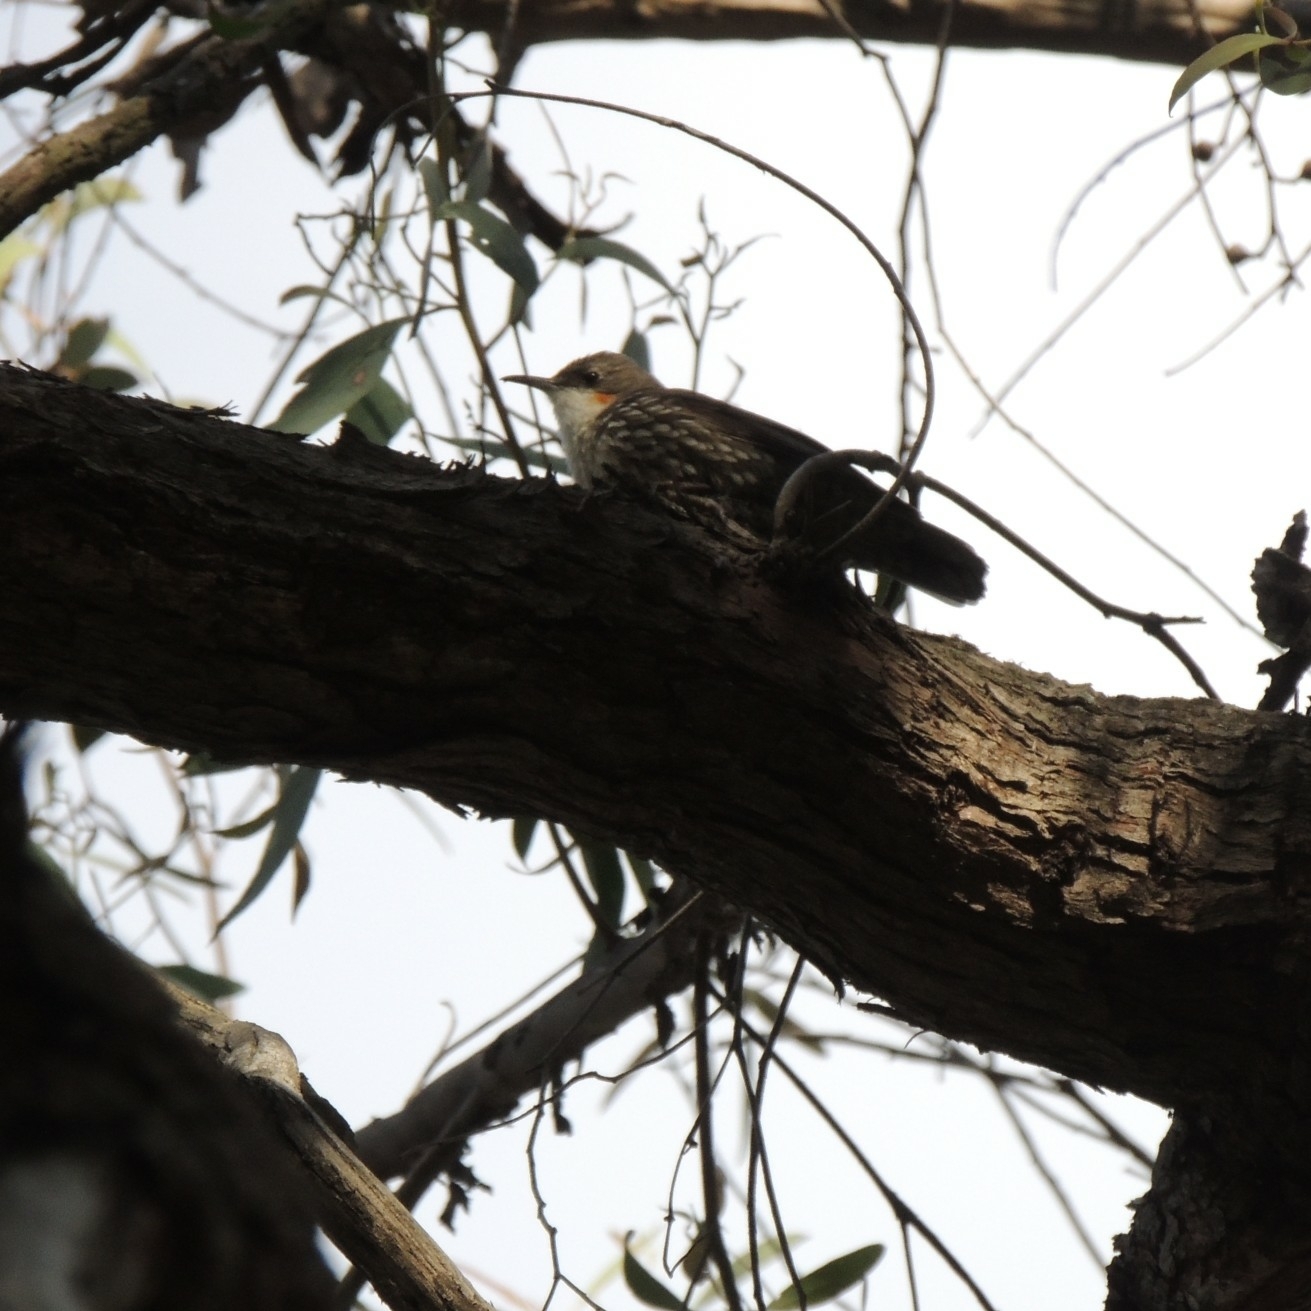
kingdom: Animalia
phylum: Chordata
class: Aves
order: Passeriformes
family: Climacteridae
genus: Cormobates
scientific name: Cormobates leucophaea
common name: White-throated treecreeper
